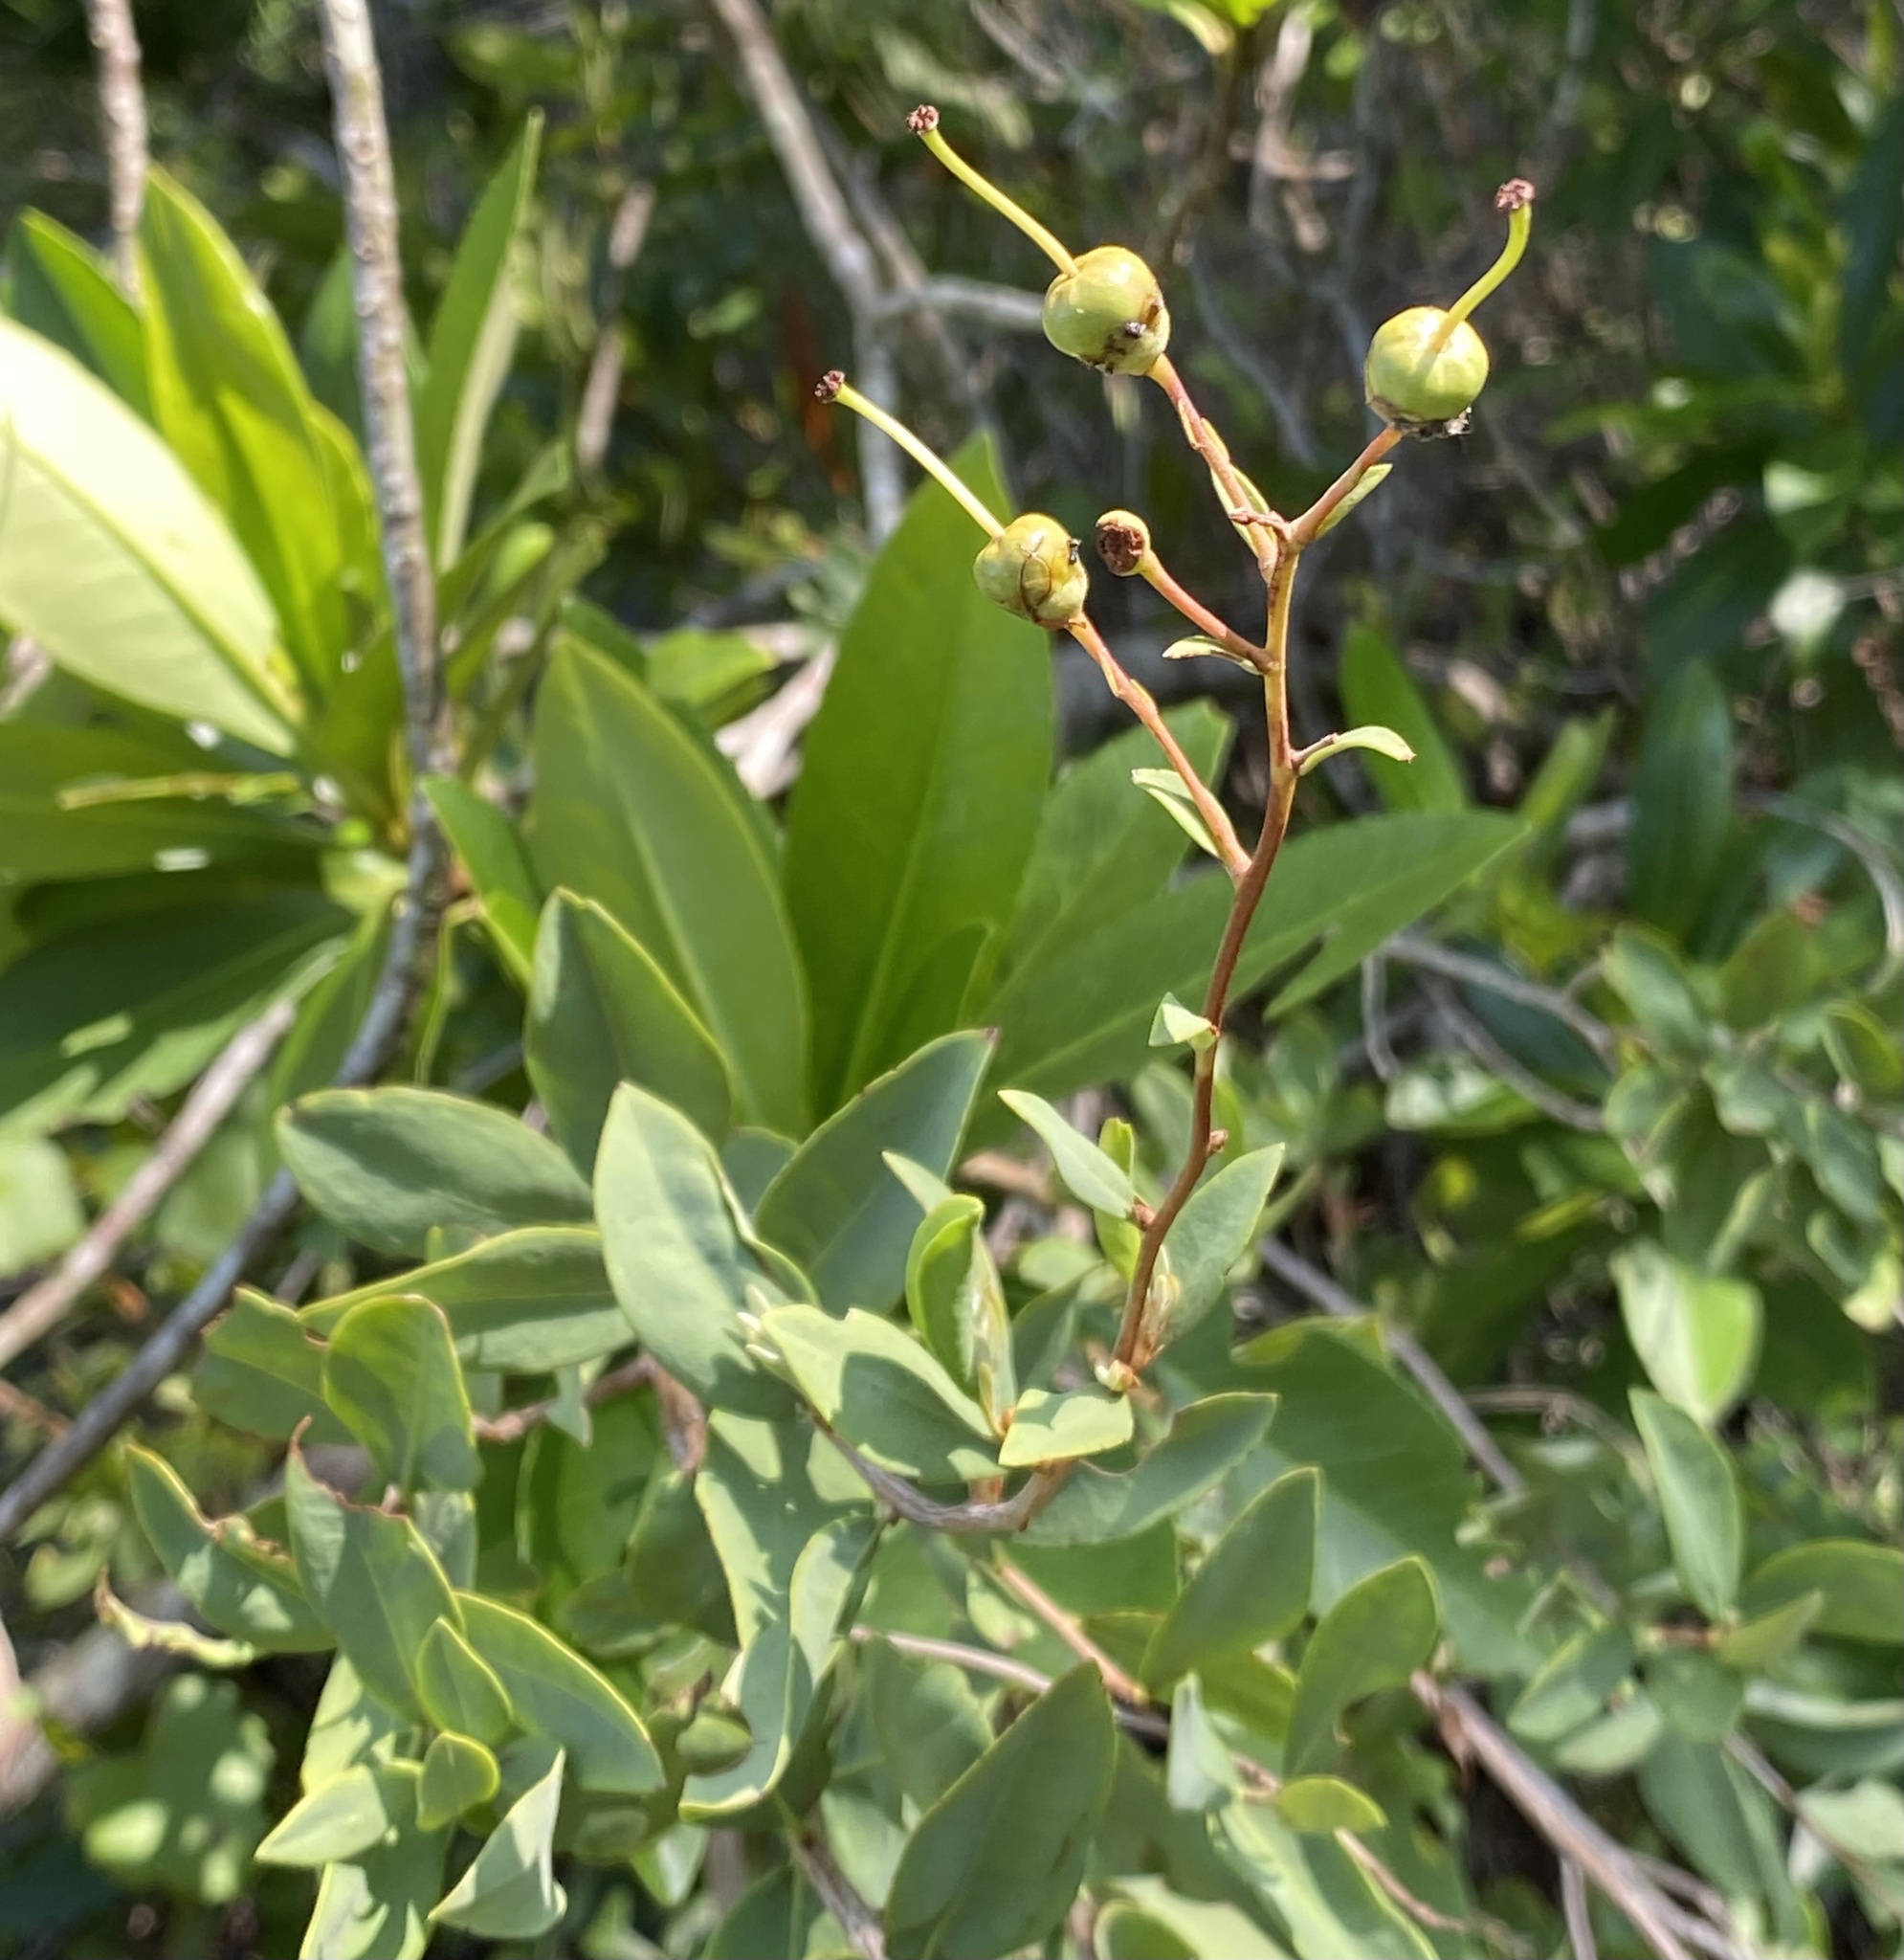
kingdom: Plantae
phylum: Tracheophyta
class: Magnoliopsida
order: Ericales
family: Ericaceae
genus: Bejaria
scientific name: Bejaria racemosa
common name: Tarflower
